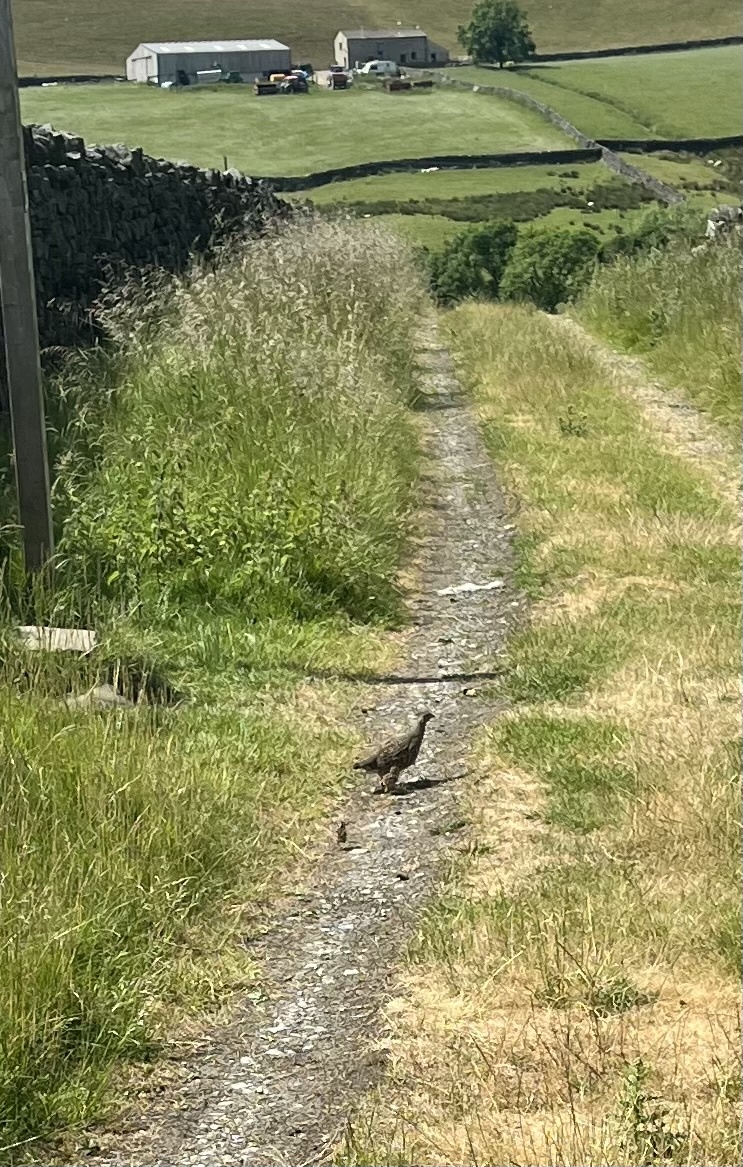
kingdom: Animalia
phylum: Chordata
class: Aves
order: Galliformes
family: Phasianidae
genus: Perdix
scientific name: Perdix perdix
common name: Grey partridge
